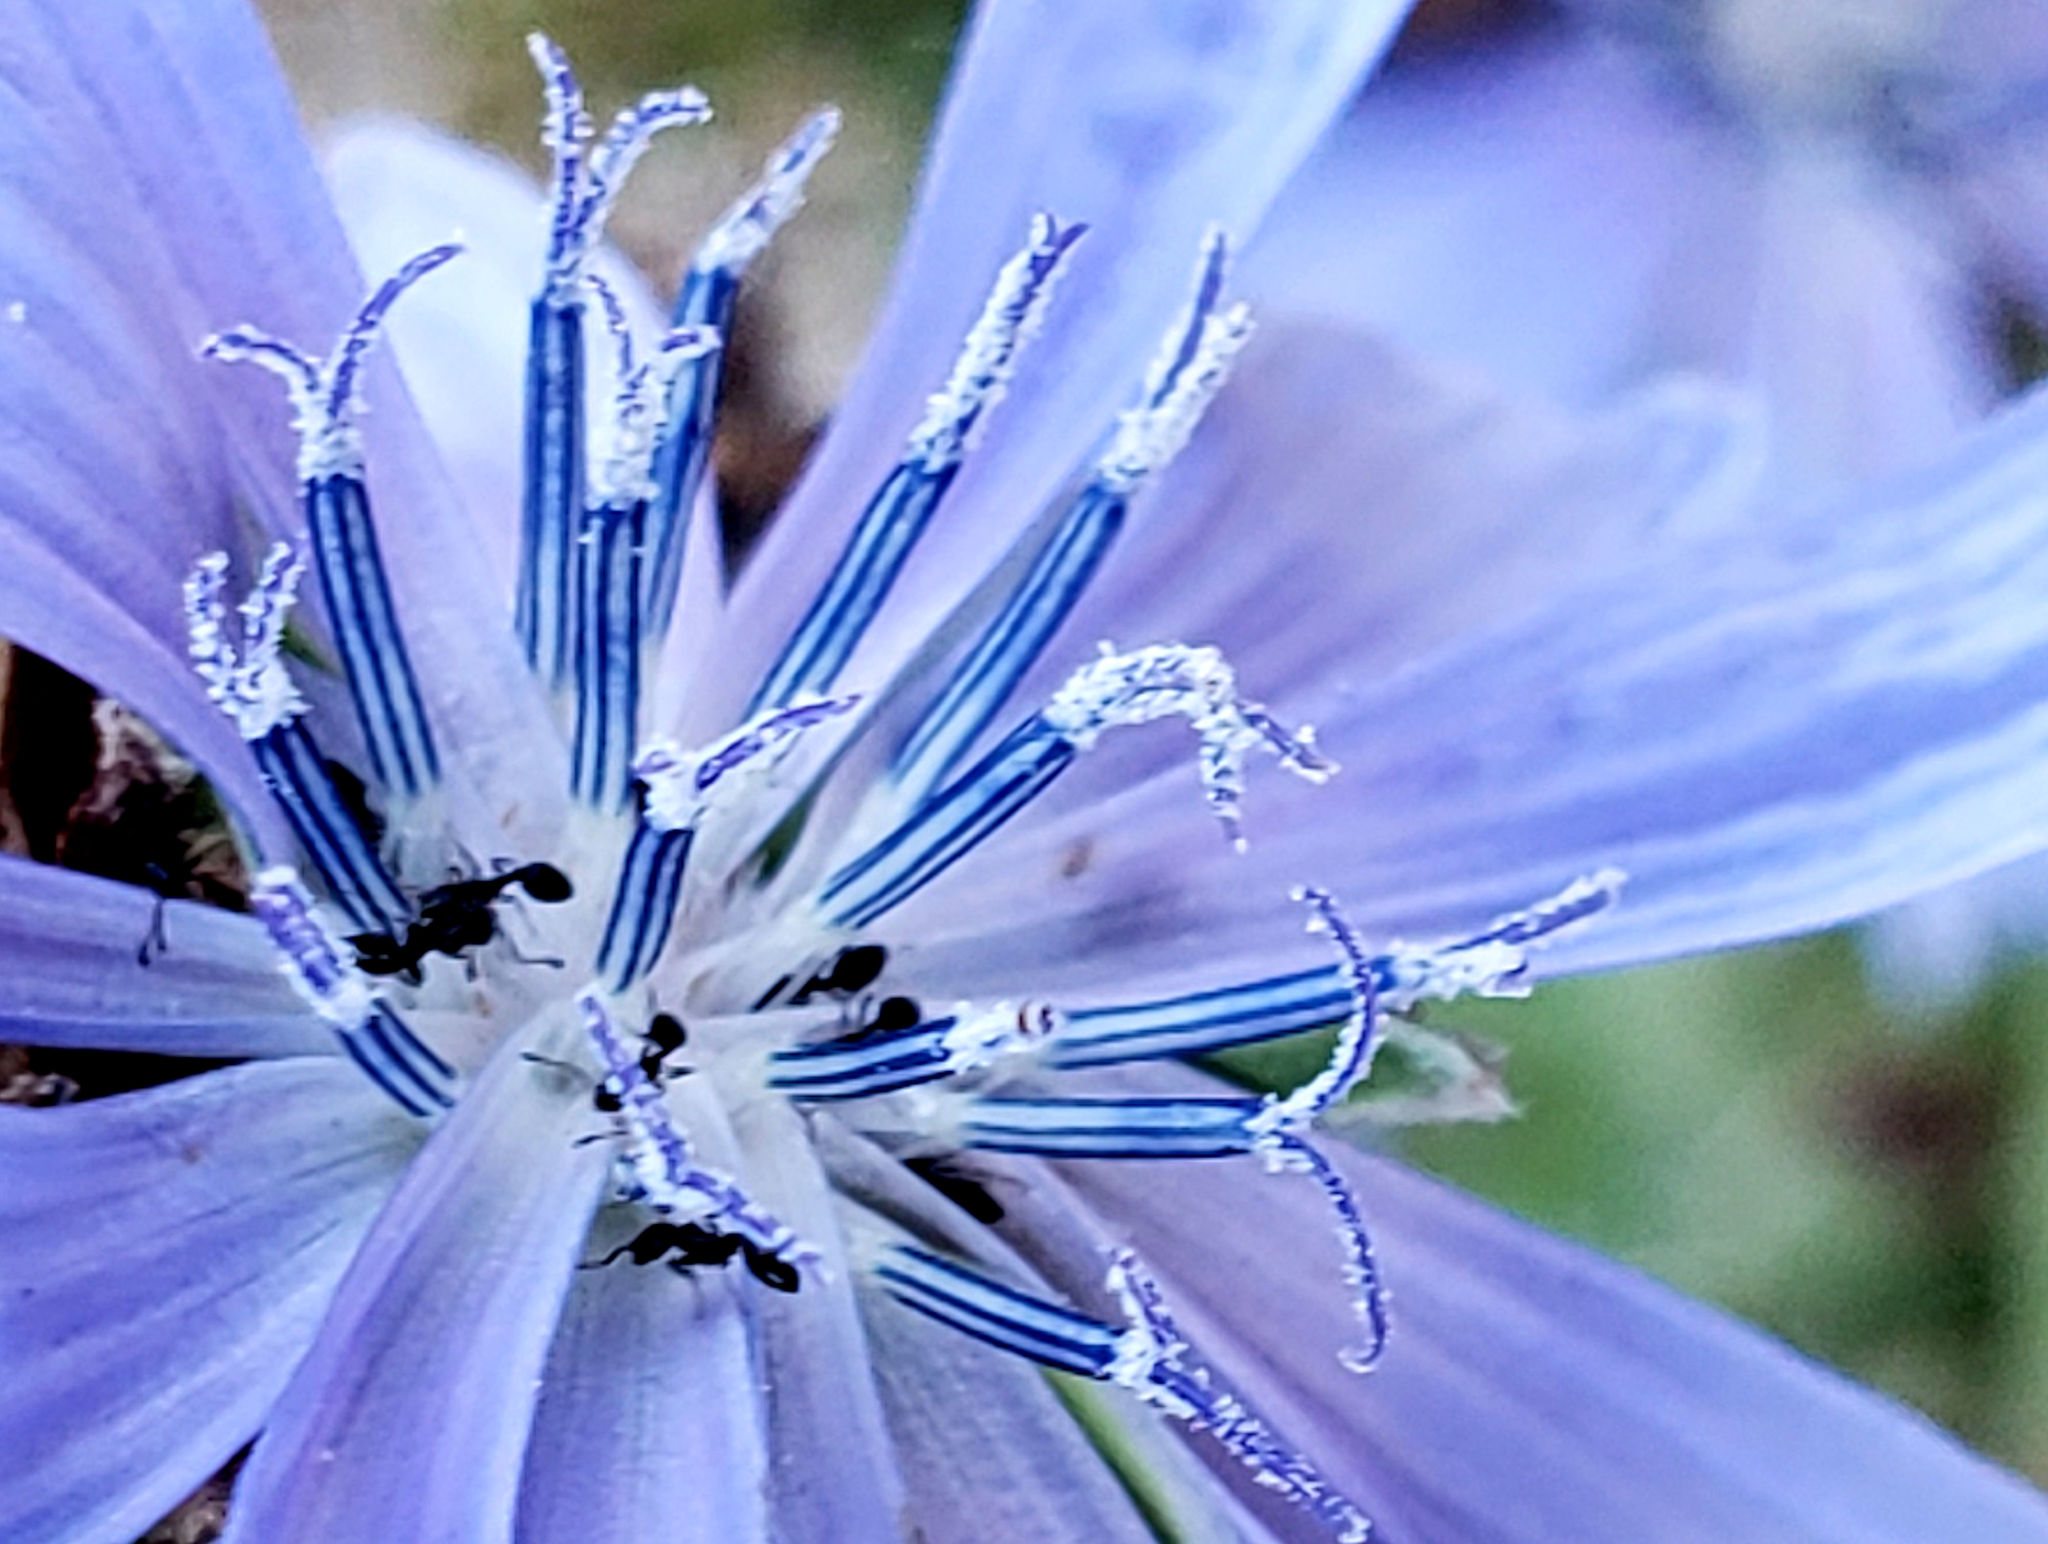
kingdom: Plantae
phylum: Tracheophyta
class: Magnoliopsida
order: Asterales
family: Asteraceae
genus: Cichorium
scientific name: Cichorium intybus
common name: Chicory
